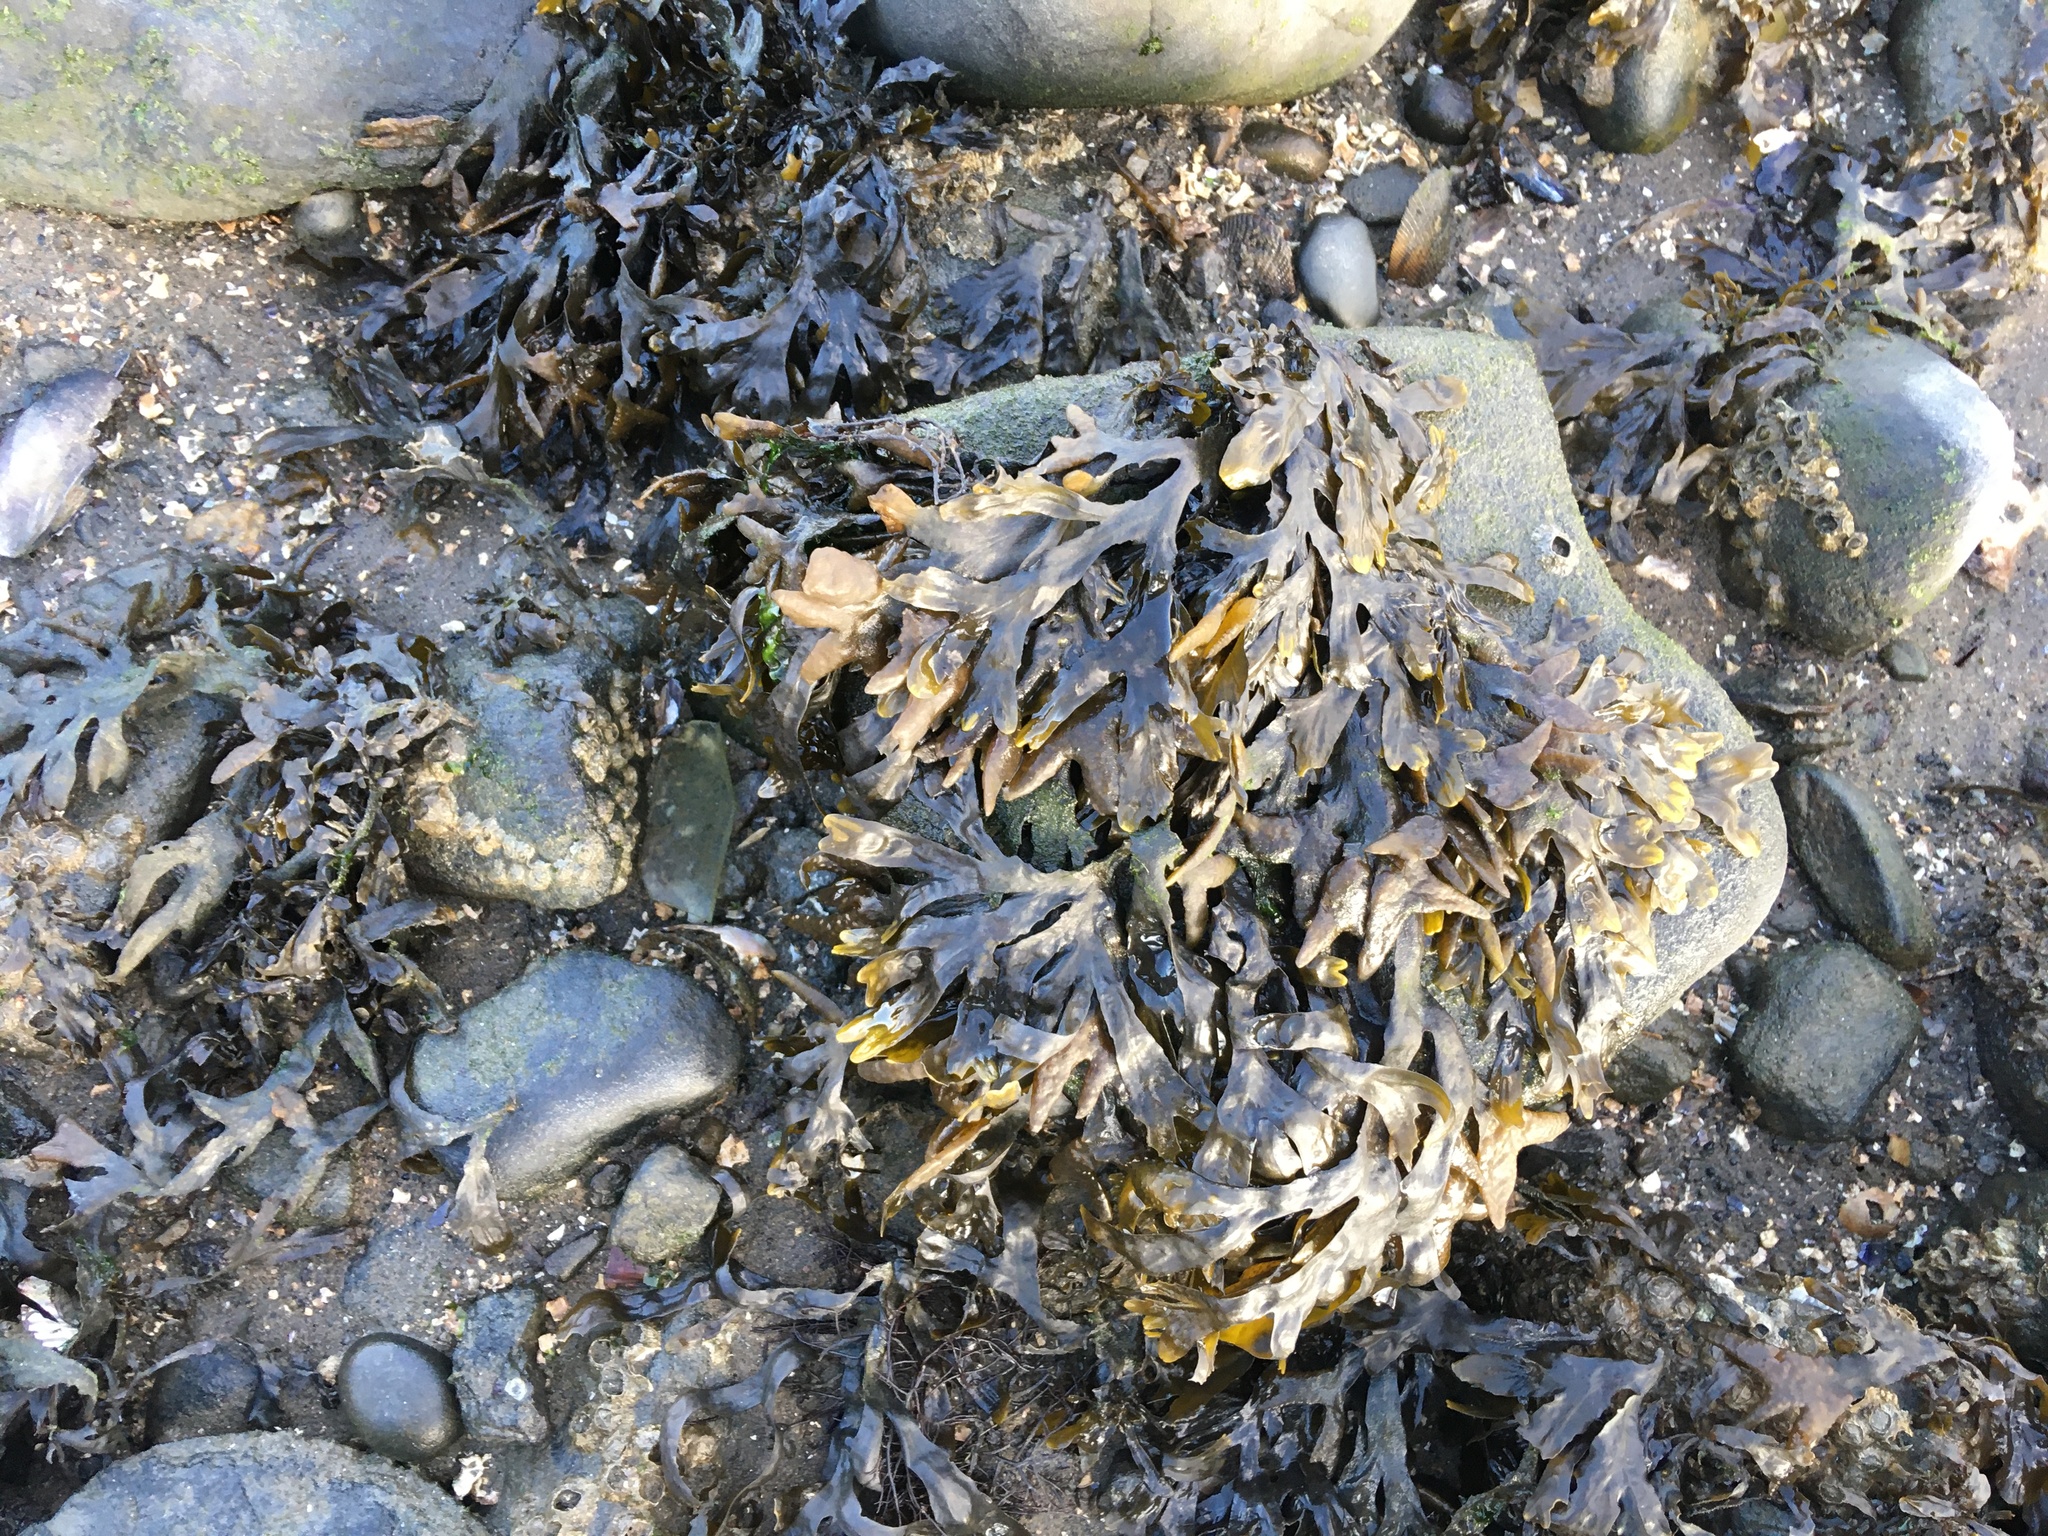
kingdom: Chromista
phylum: Ochrophyta
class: Phaeophyceae
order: Fucales
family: Fucaceae
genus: Fucus
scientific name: Fucus vesiculosus
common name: Bladder wrack
